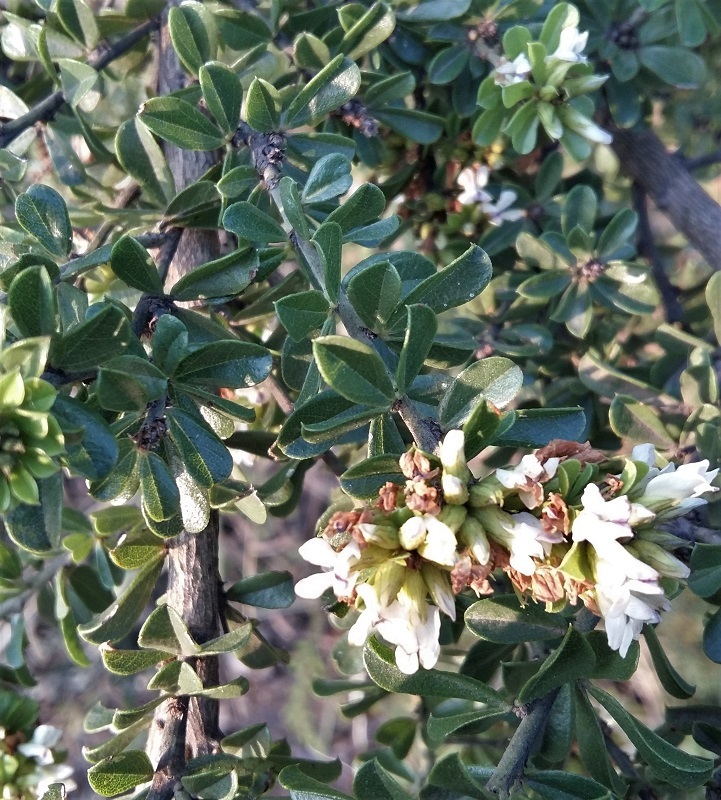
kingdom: Plantae
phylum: Tracheophyta
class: Magnoliopsida
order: Fabales
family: Fabaceae
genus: Psoralea
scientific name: Psoralea prodiens
